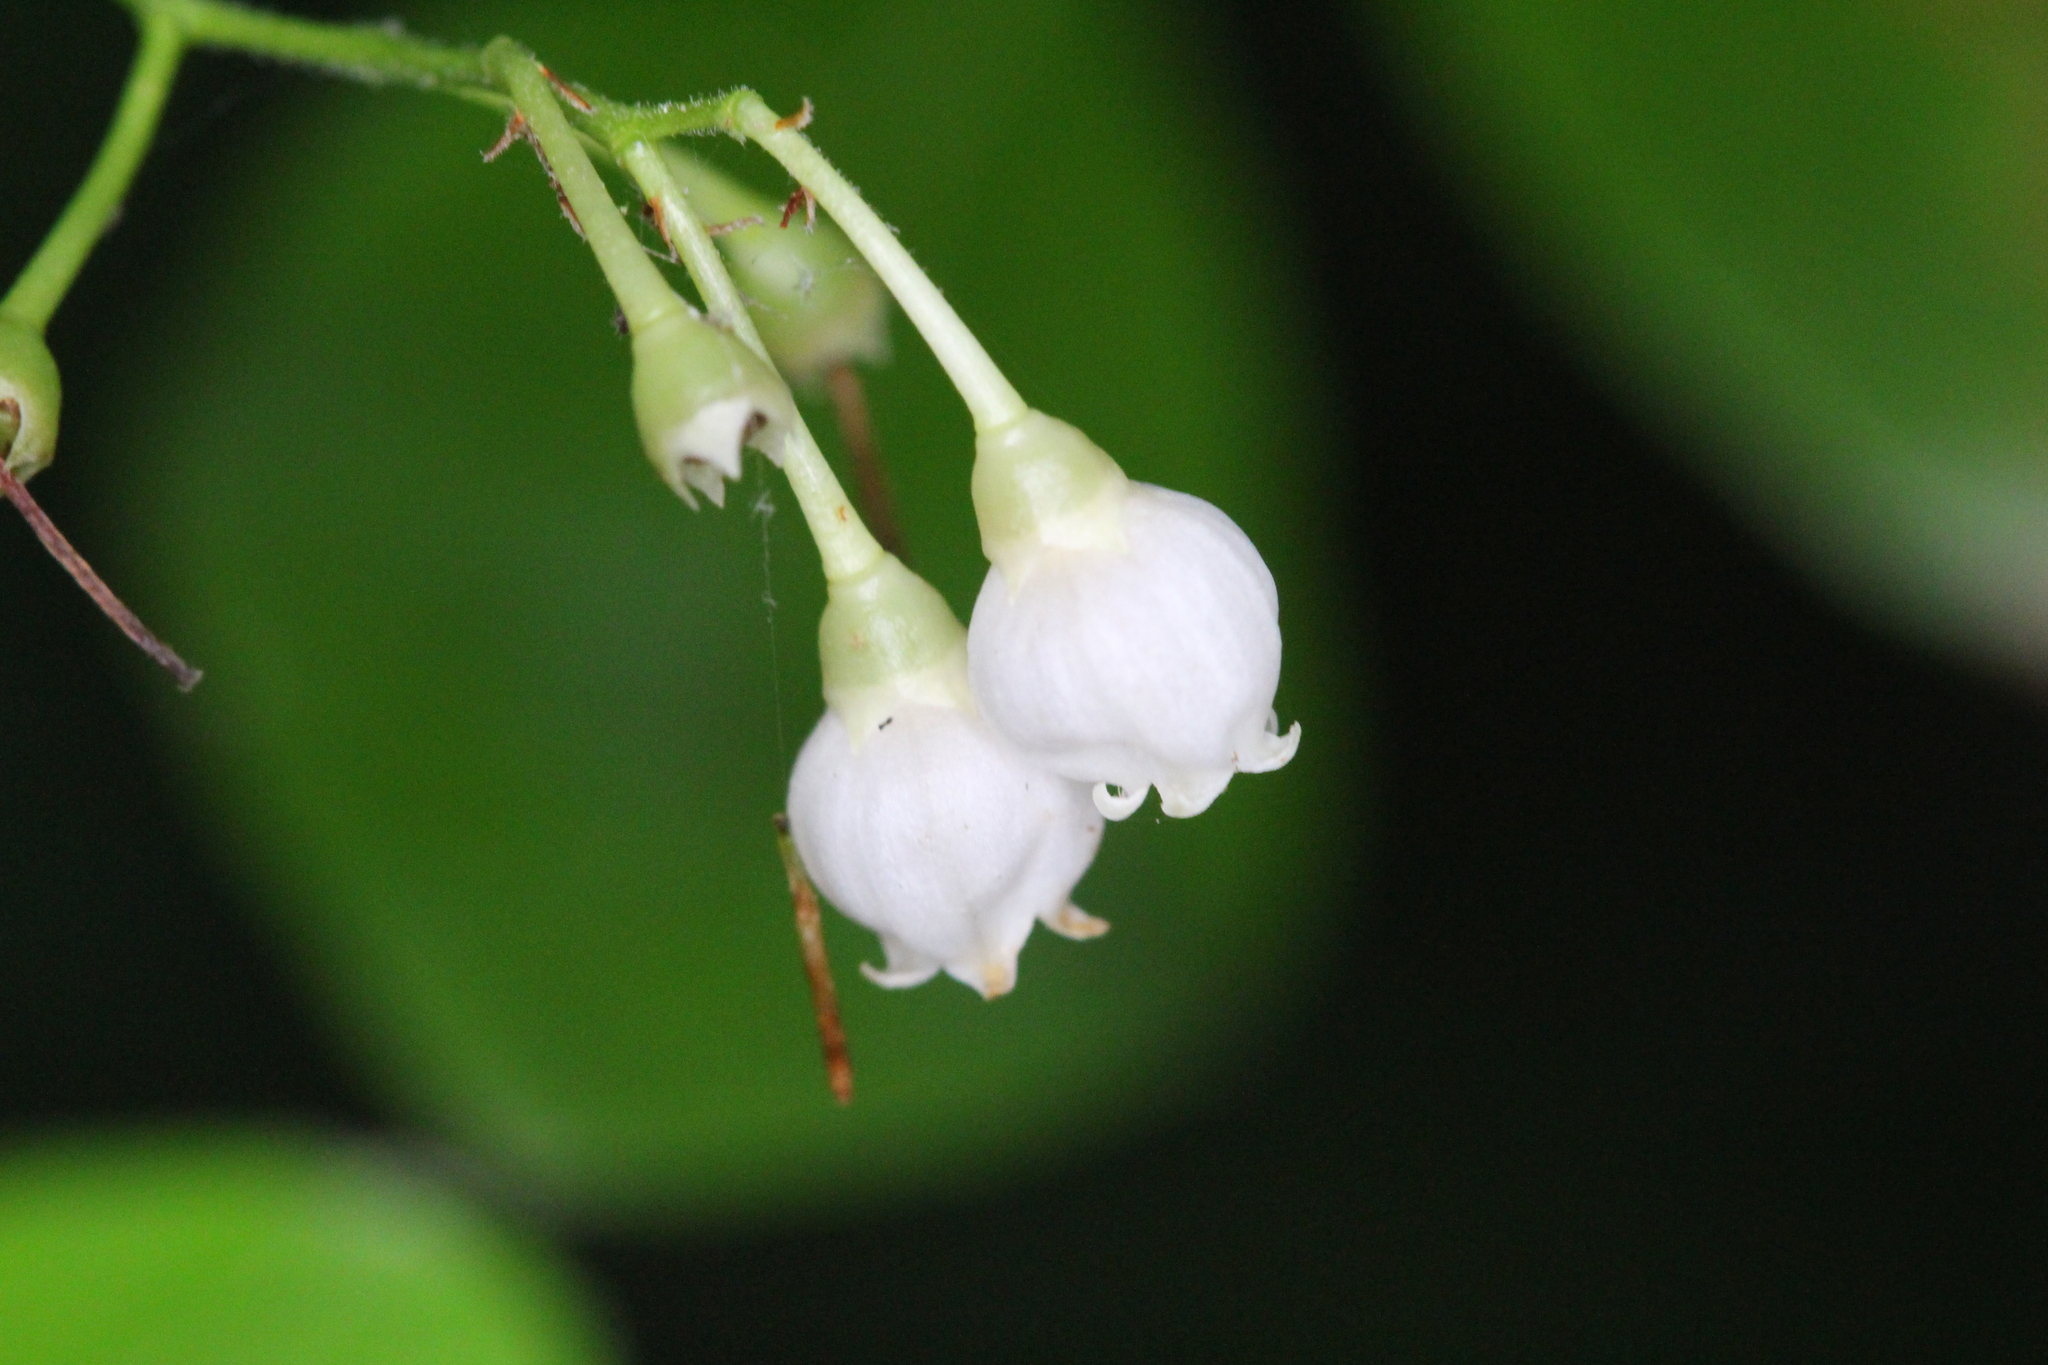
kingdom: Plantae
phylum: Tracheophyta
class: Magnoliopsida
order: Ericales
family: Ericaceae
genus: Vaccinium
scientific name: Vaccinium arboreum
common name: Farkleberry
